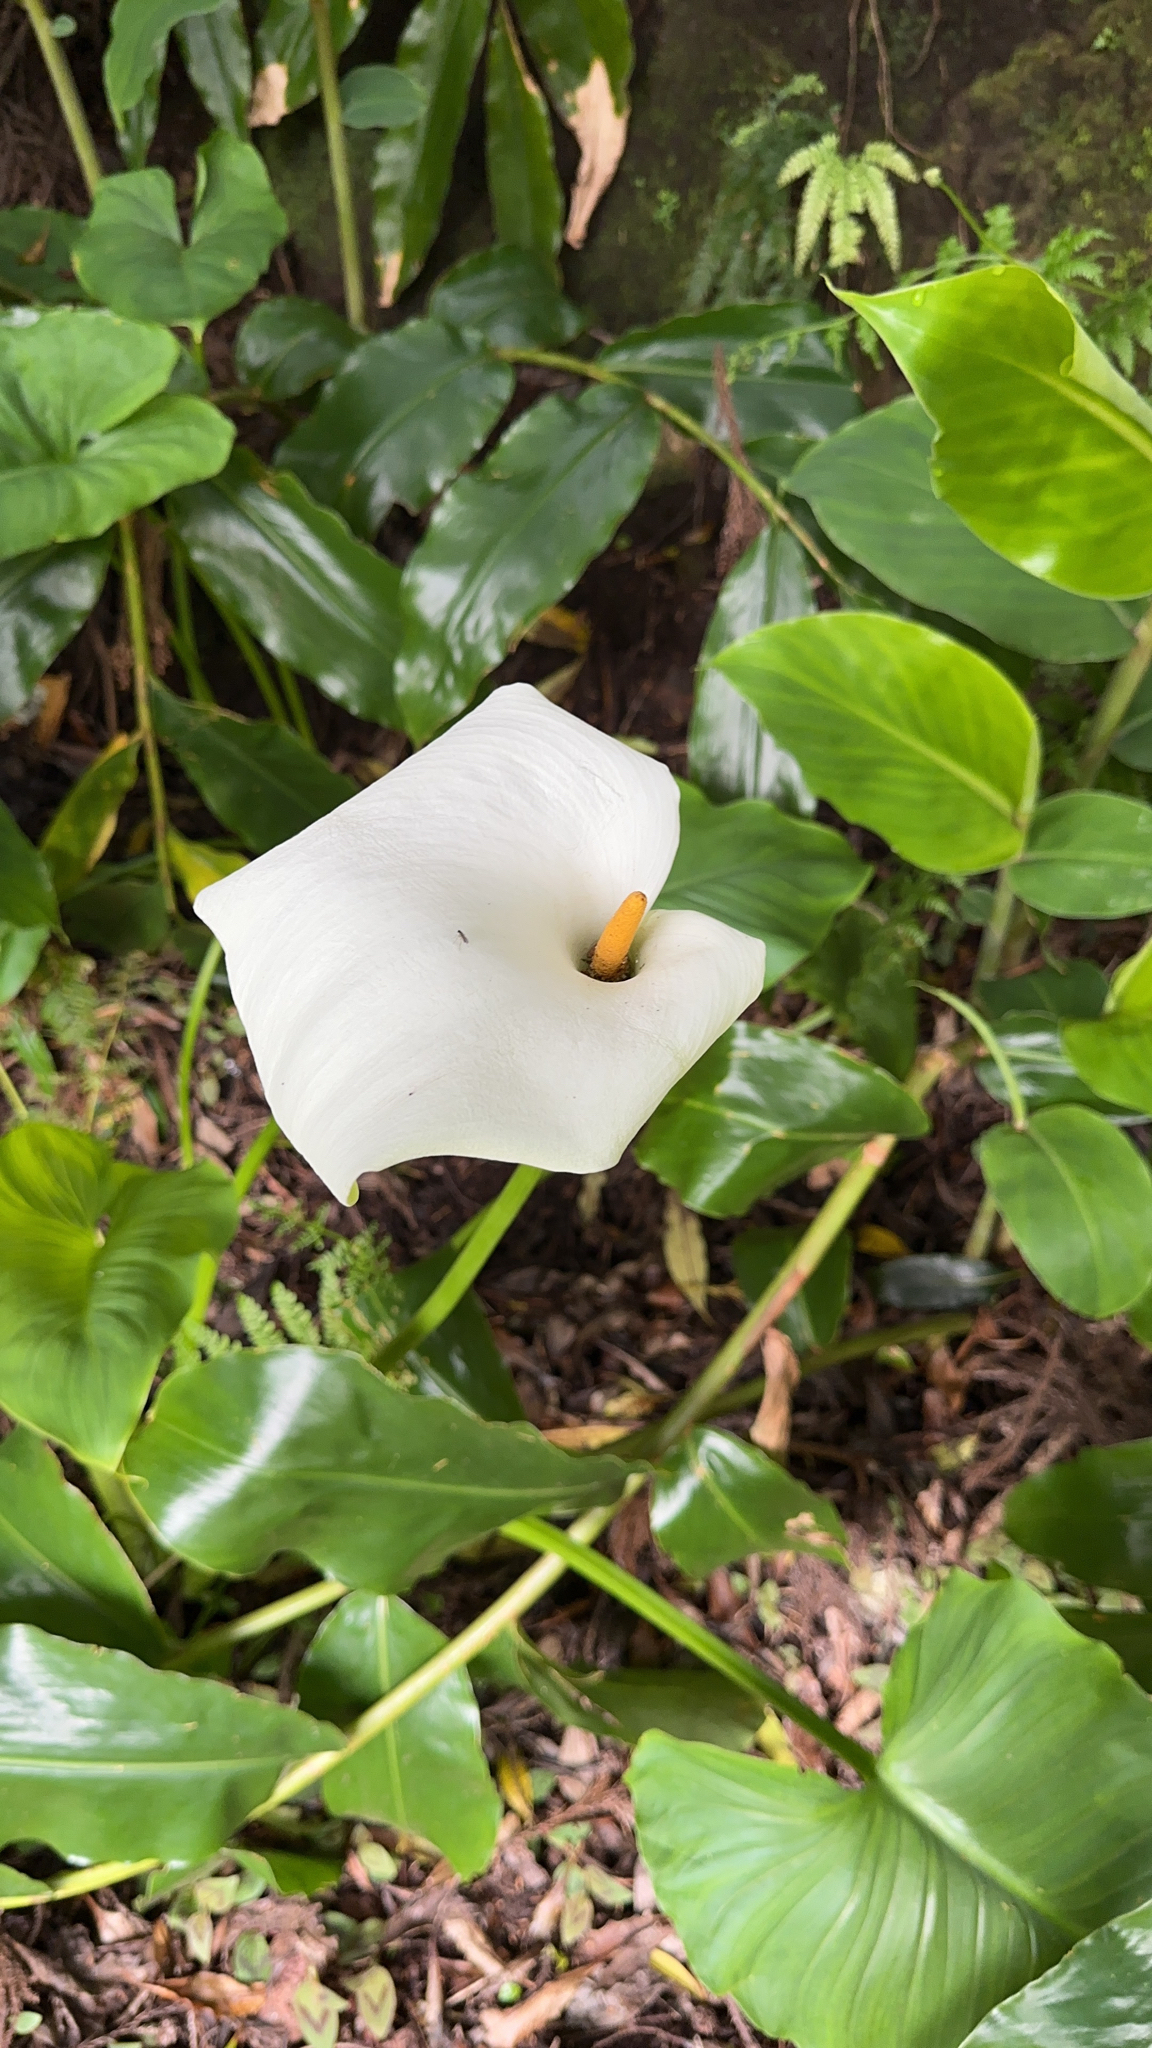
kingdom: Plantae
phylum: Tracheophyta
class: Liliopsida
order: Alismatales
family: Araceae
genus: Zantedeschia
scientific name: Zantedeschia aethiopica
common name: Altar-lily
